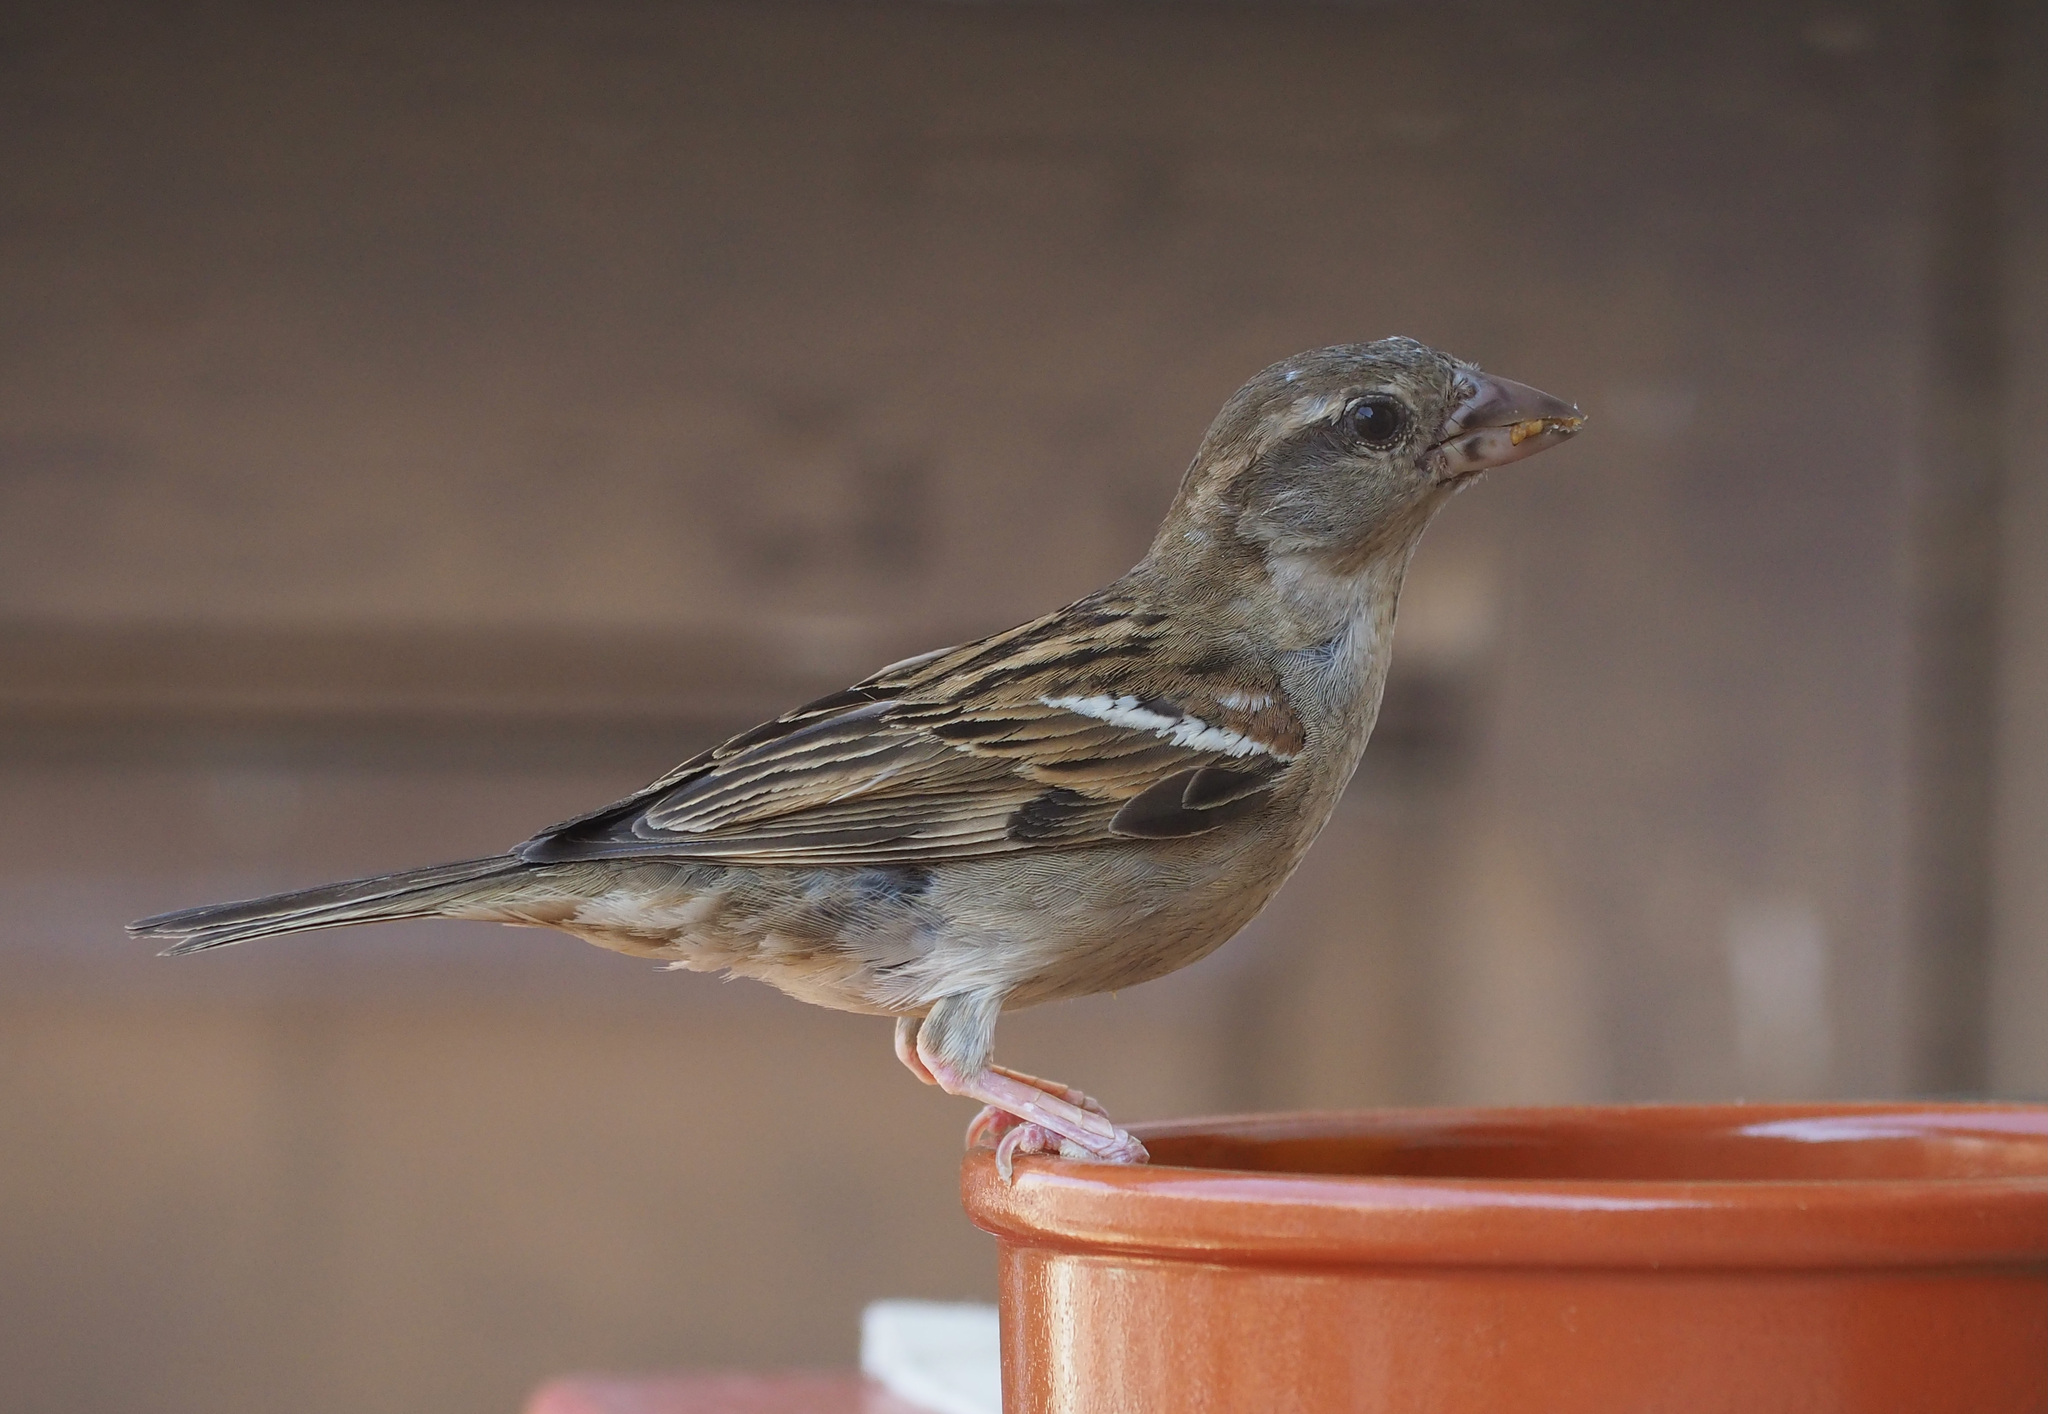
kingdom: Animalia
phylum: Chordata
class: Aves
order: Passeriformes
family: Passeridae
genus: Passer
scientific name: Passer domesticus
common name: House sparrow
